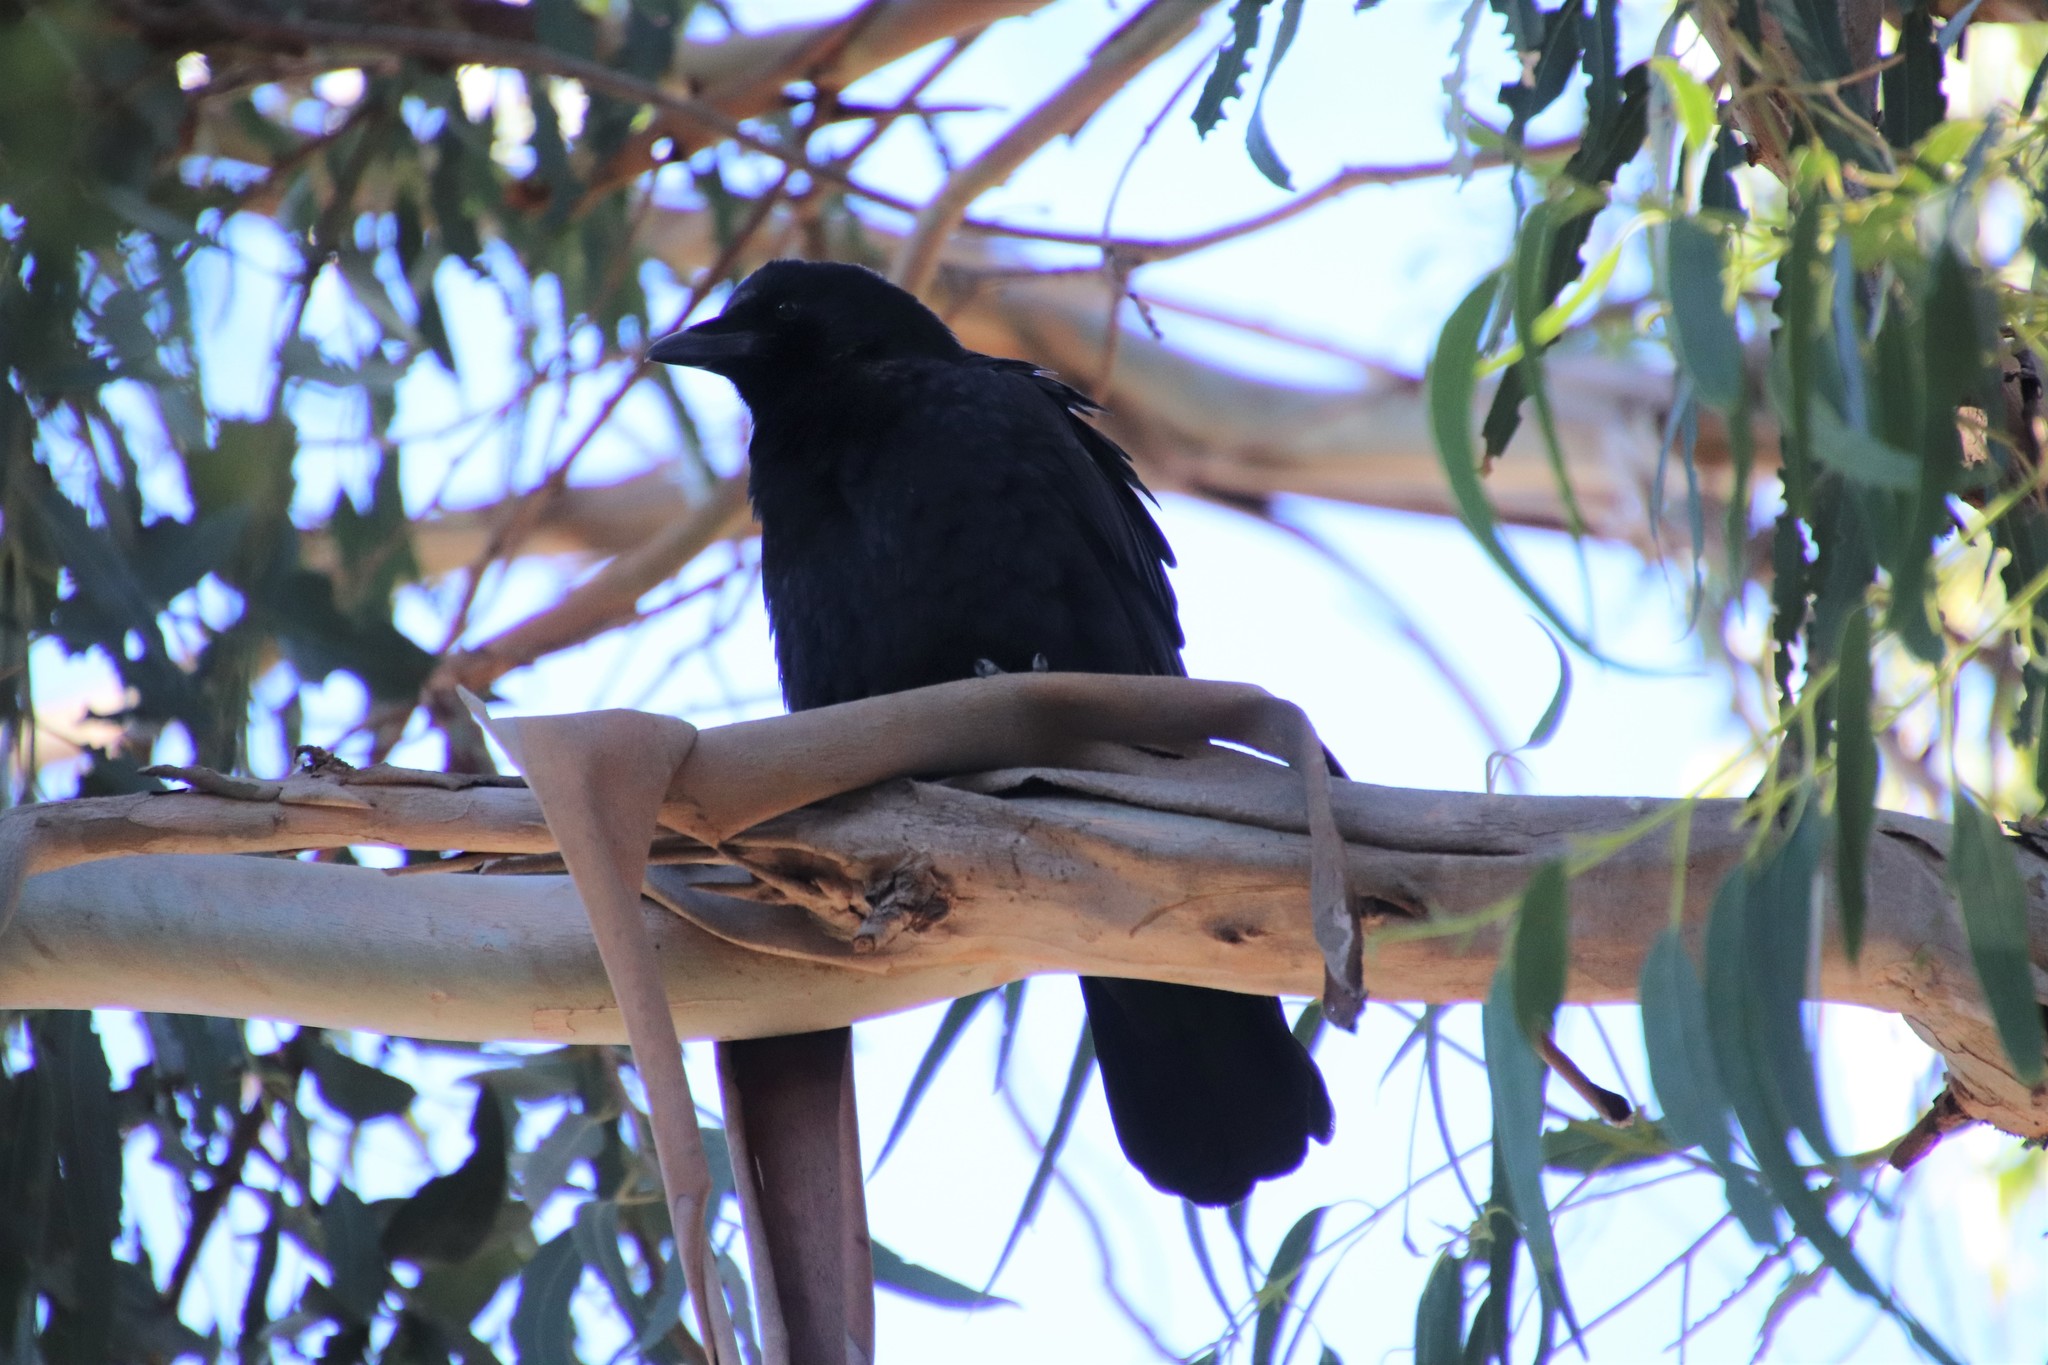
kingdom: Animalia
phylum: Chordata
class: Aves
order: Passeriformes
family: Corvidae
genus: Corvus
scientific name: Corvus brachyrhynchos
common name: American crow
